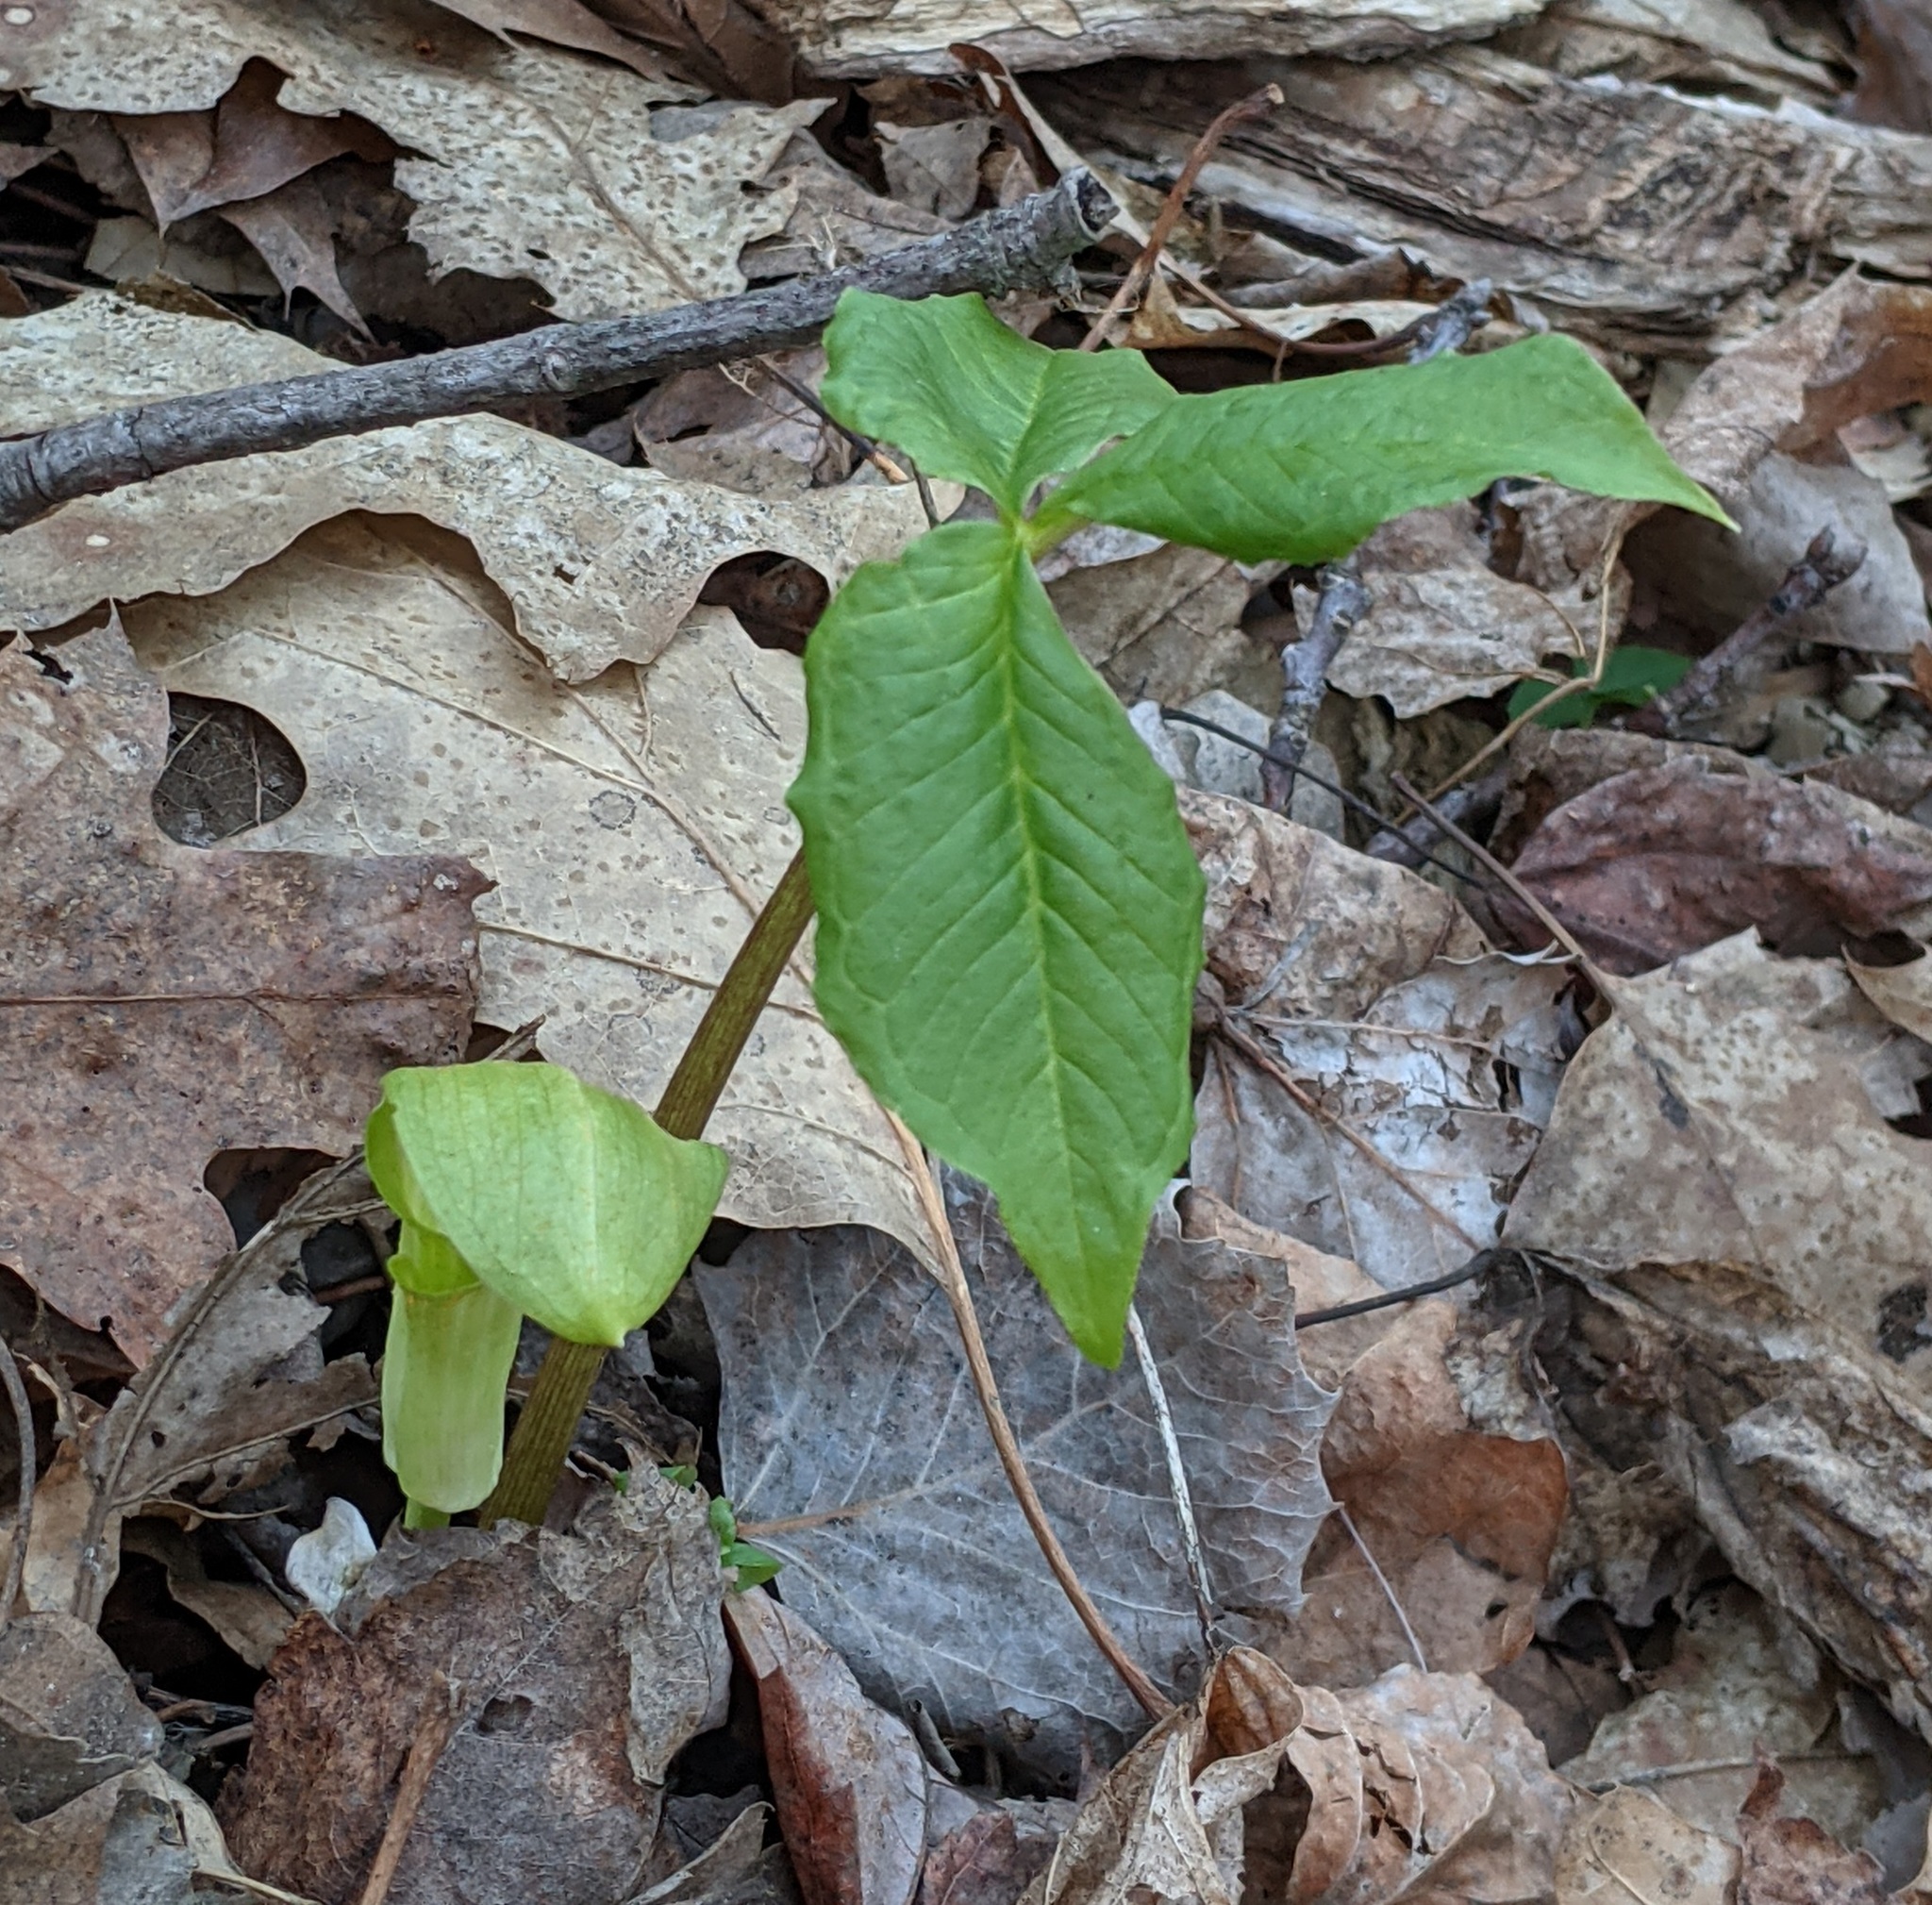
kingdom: Plantae
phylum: Tracheophyta
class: Liliopsida
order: Alismatales
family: Araceae
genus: Arisaema
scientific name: Arisaema triphyllum
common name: Jack-in-the-pulpit
